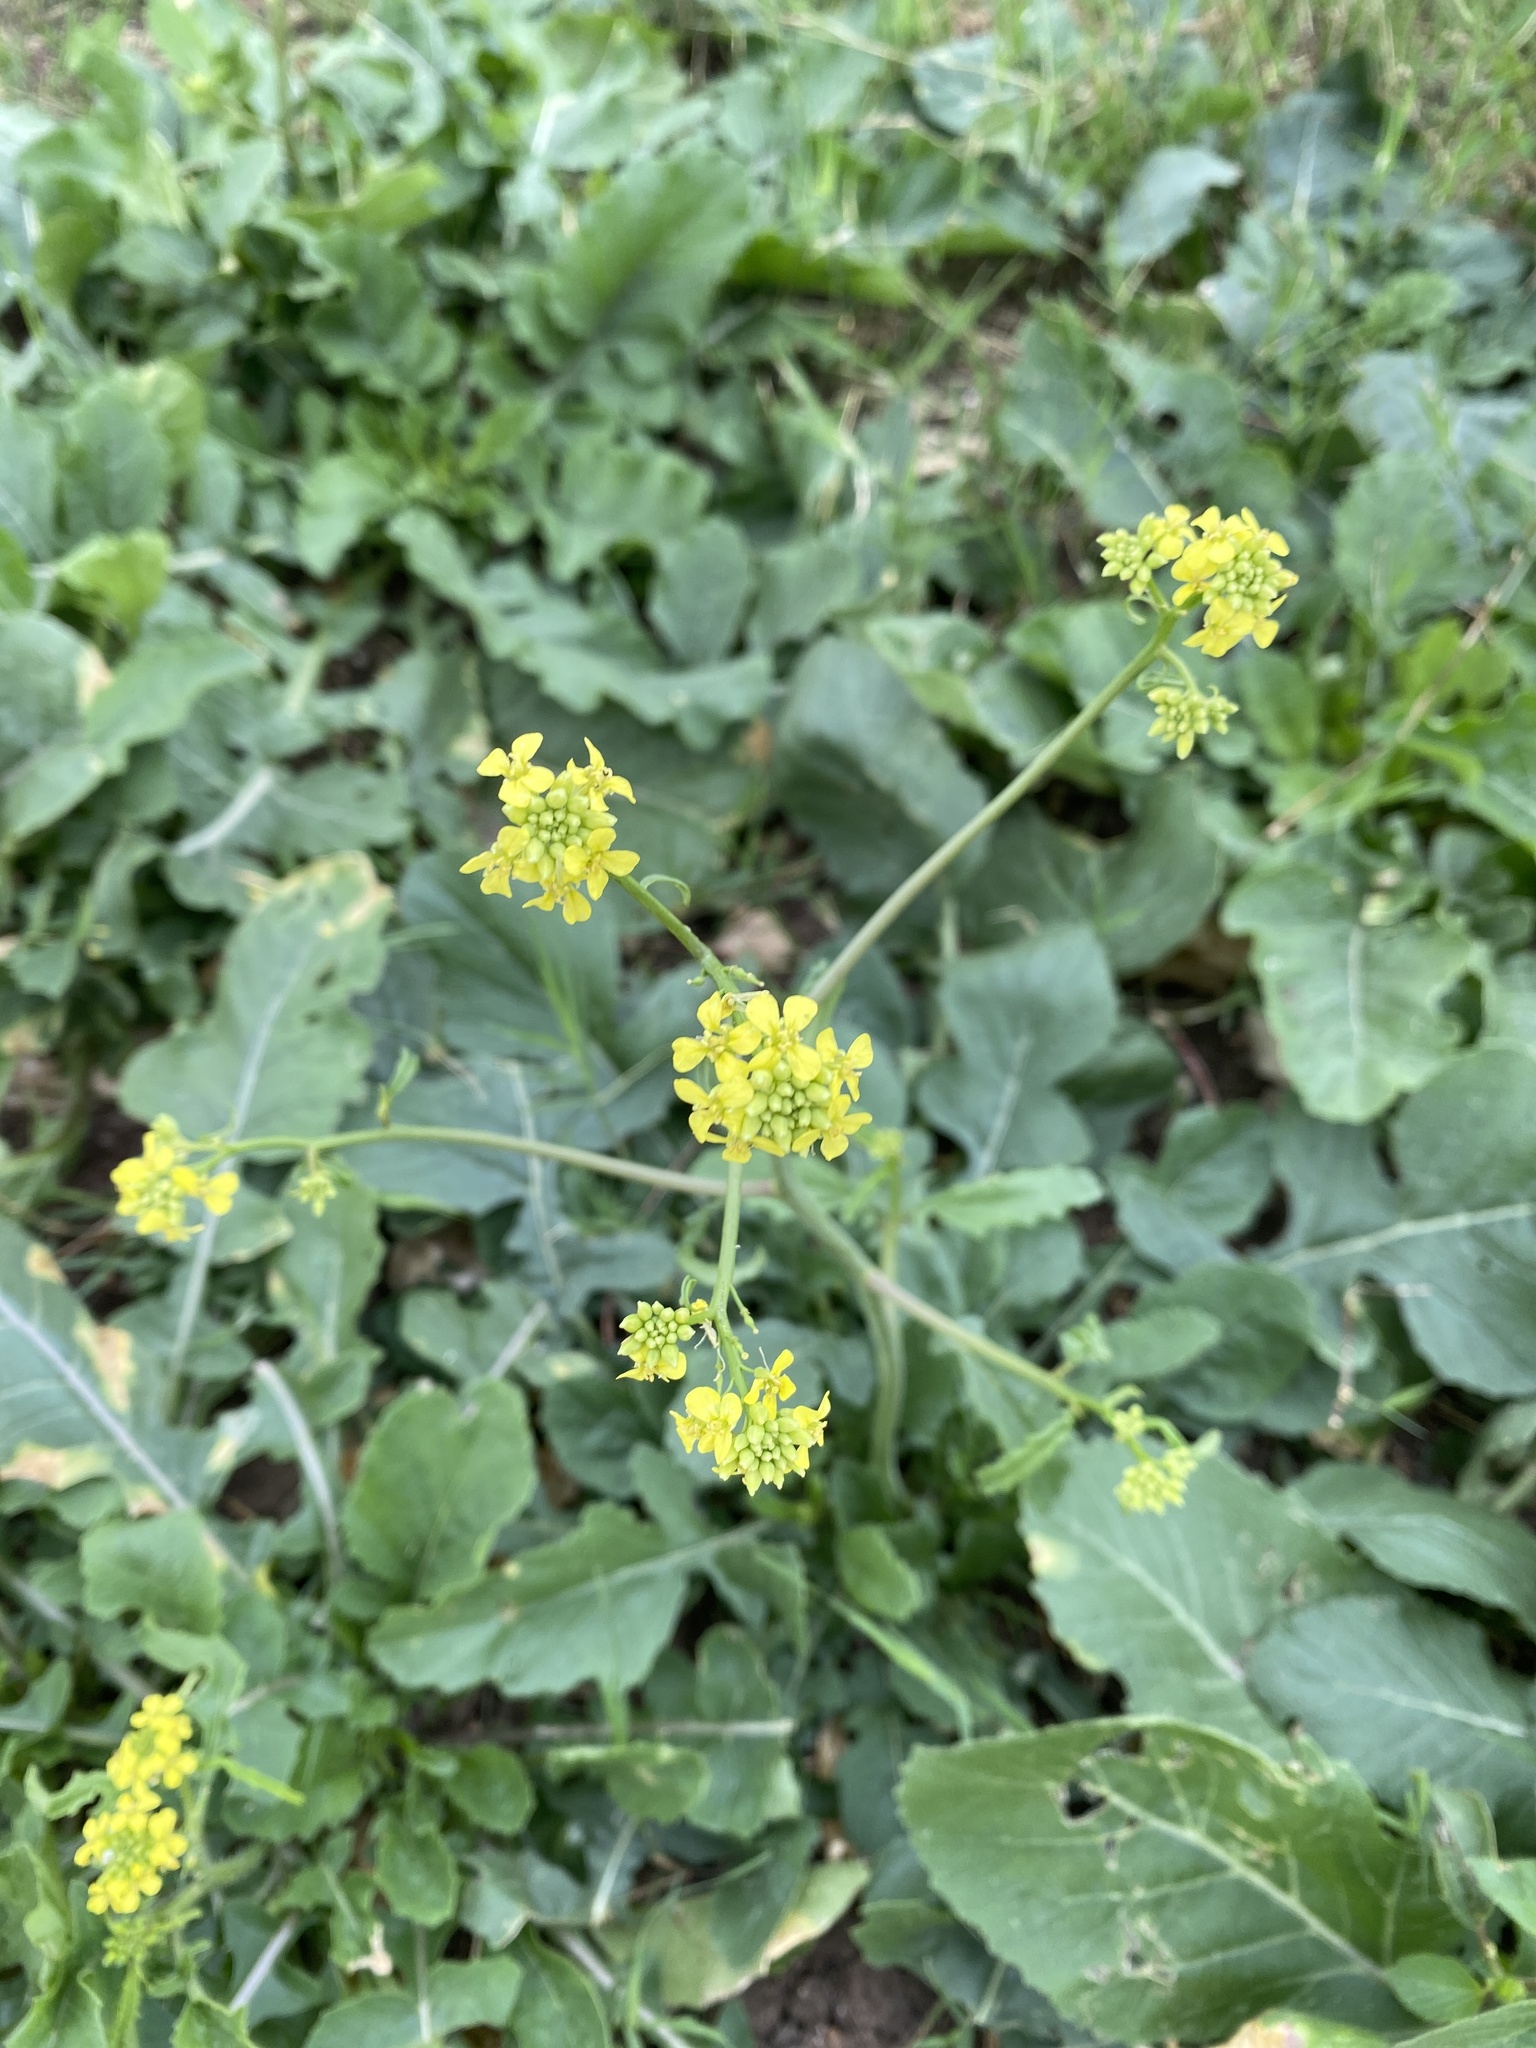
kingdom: Plantae
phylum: Tracheophyta
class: Magnoliopsida
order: Brassicales
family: Brassicaceae
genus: Rapistrum
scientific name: Rapistrum rugosum
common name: Annual bastardcabbage
